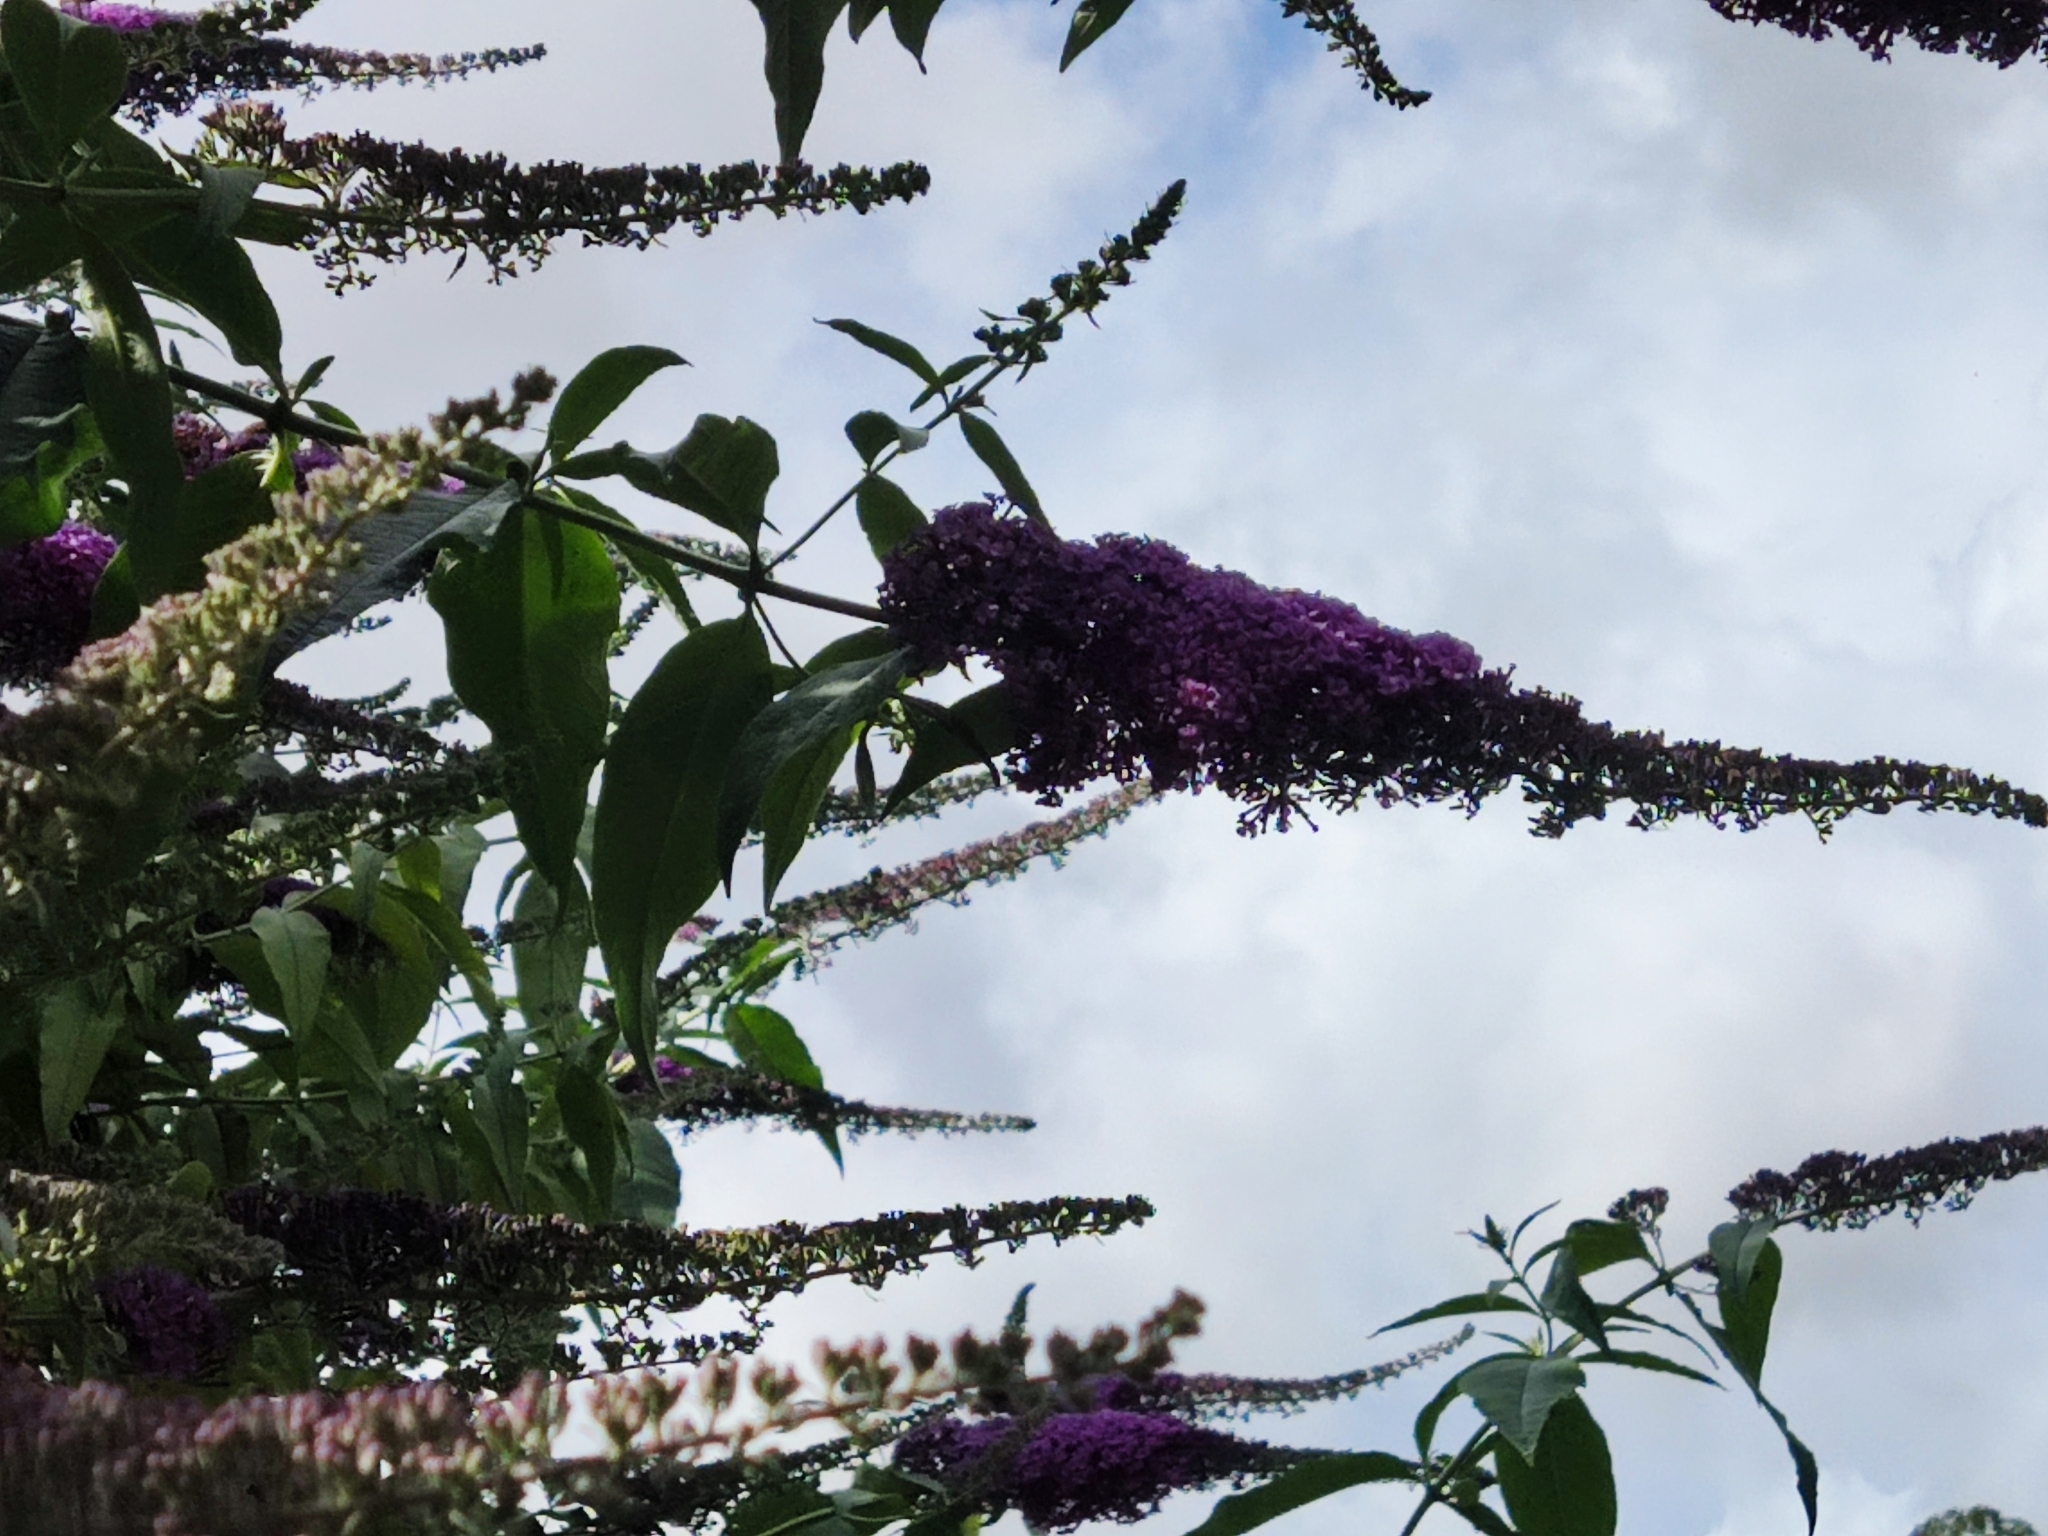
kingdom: Plantae
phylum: Tracheophyta
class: Magnoliopsida
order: Lamiales
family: Scrophulariaceae
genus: Buddleja
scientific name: Buddleja davidii
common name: Butterfly-bush
